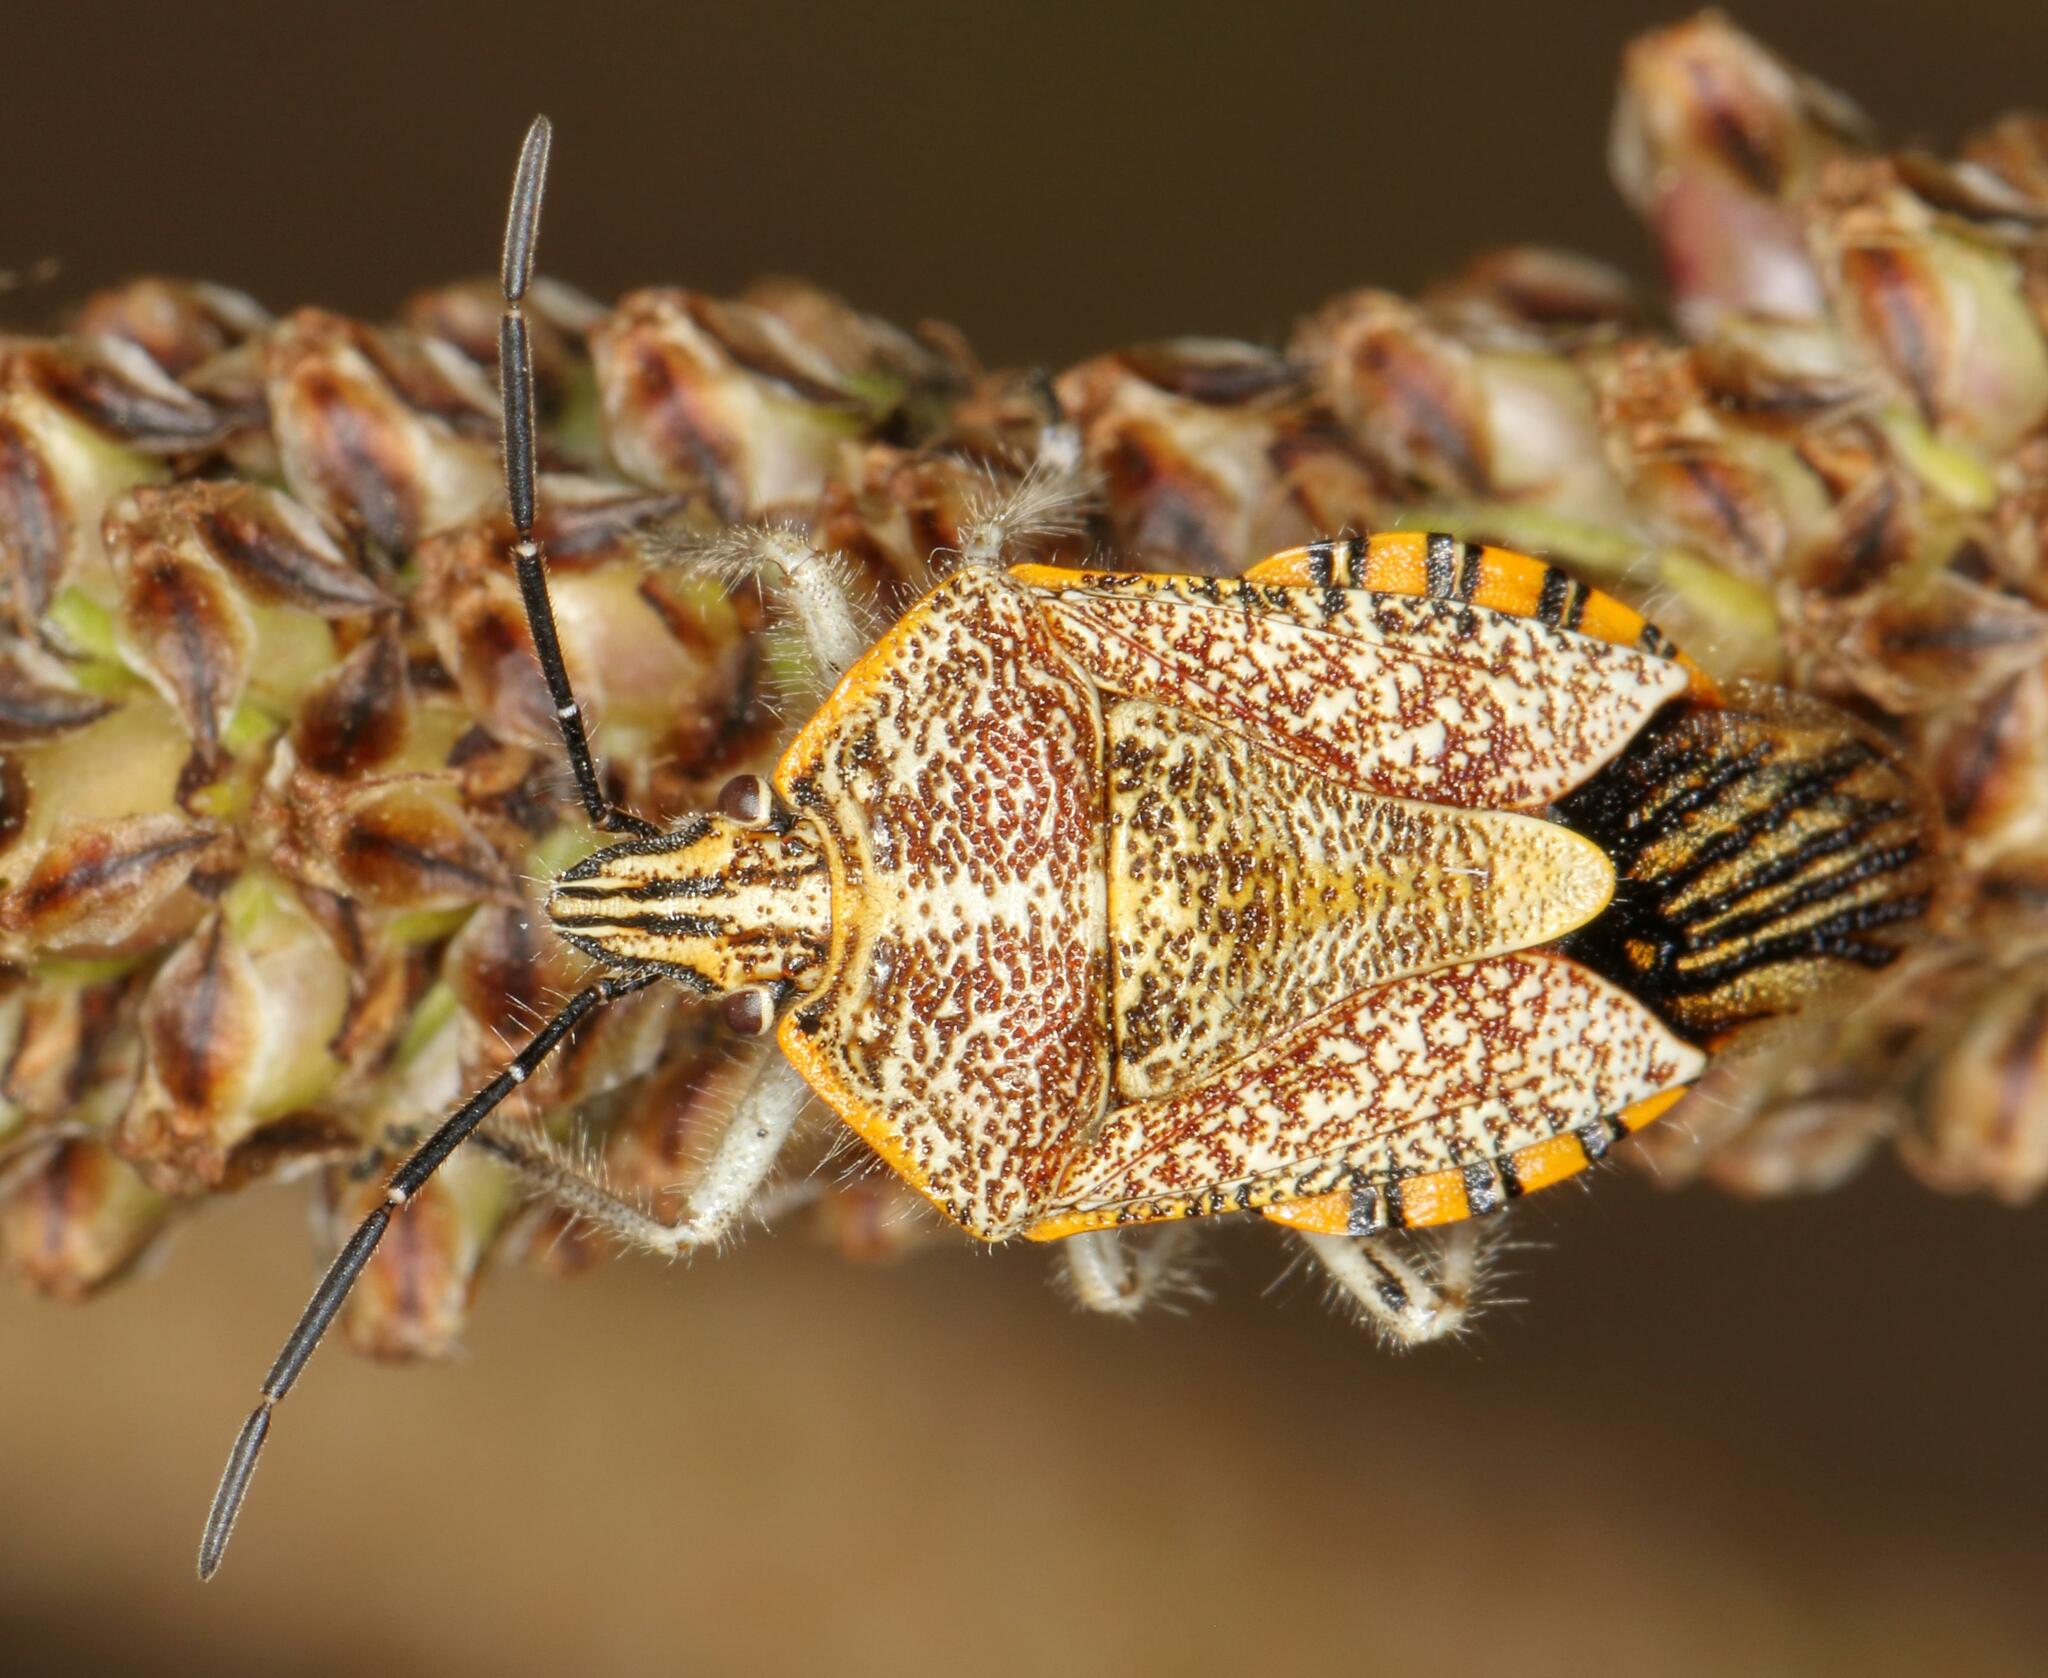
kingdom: Animalia
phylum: Arthropoda
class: Insecta
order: Hemiptera
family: Pentatomidae
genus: Agonoscelis
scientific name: Agonoscelis versicoloratus
